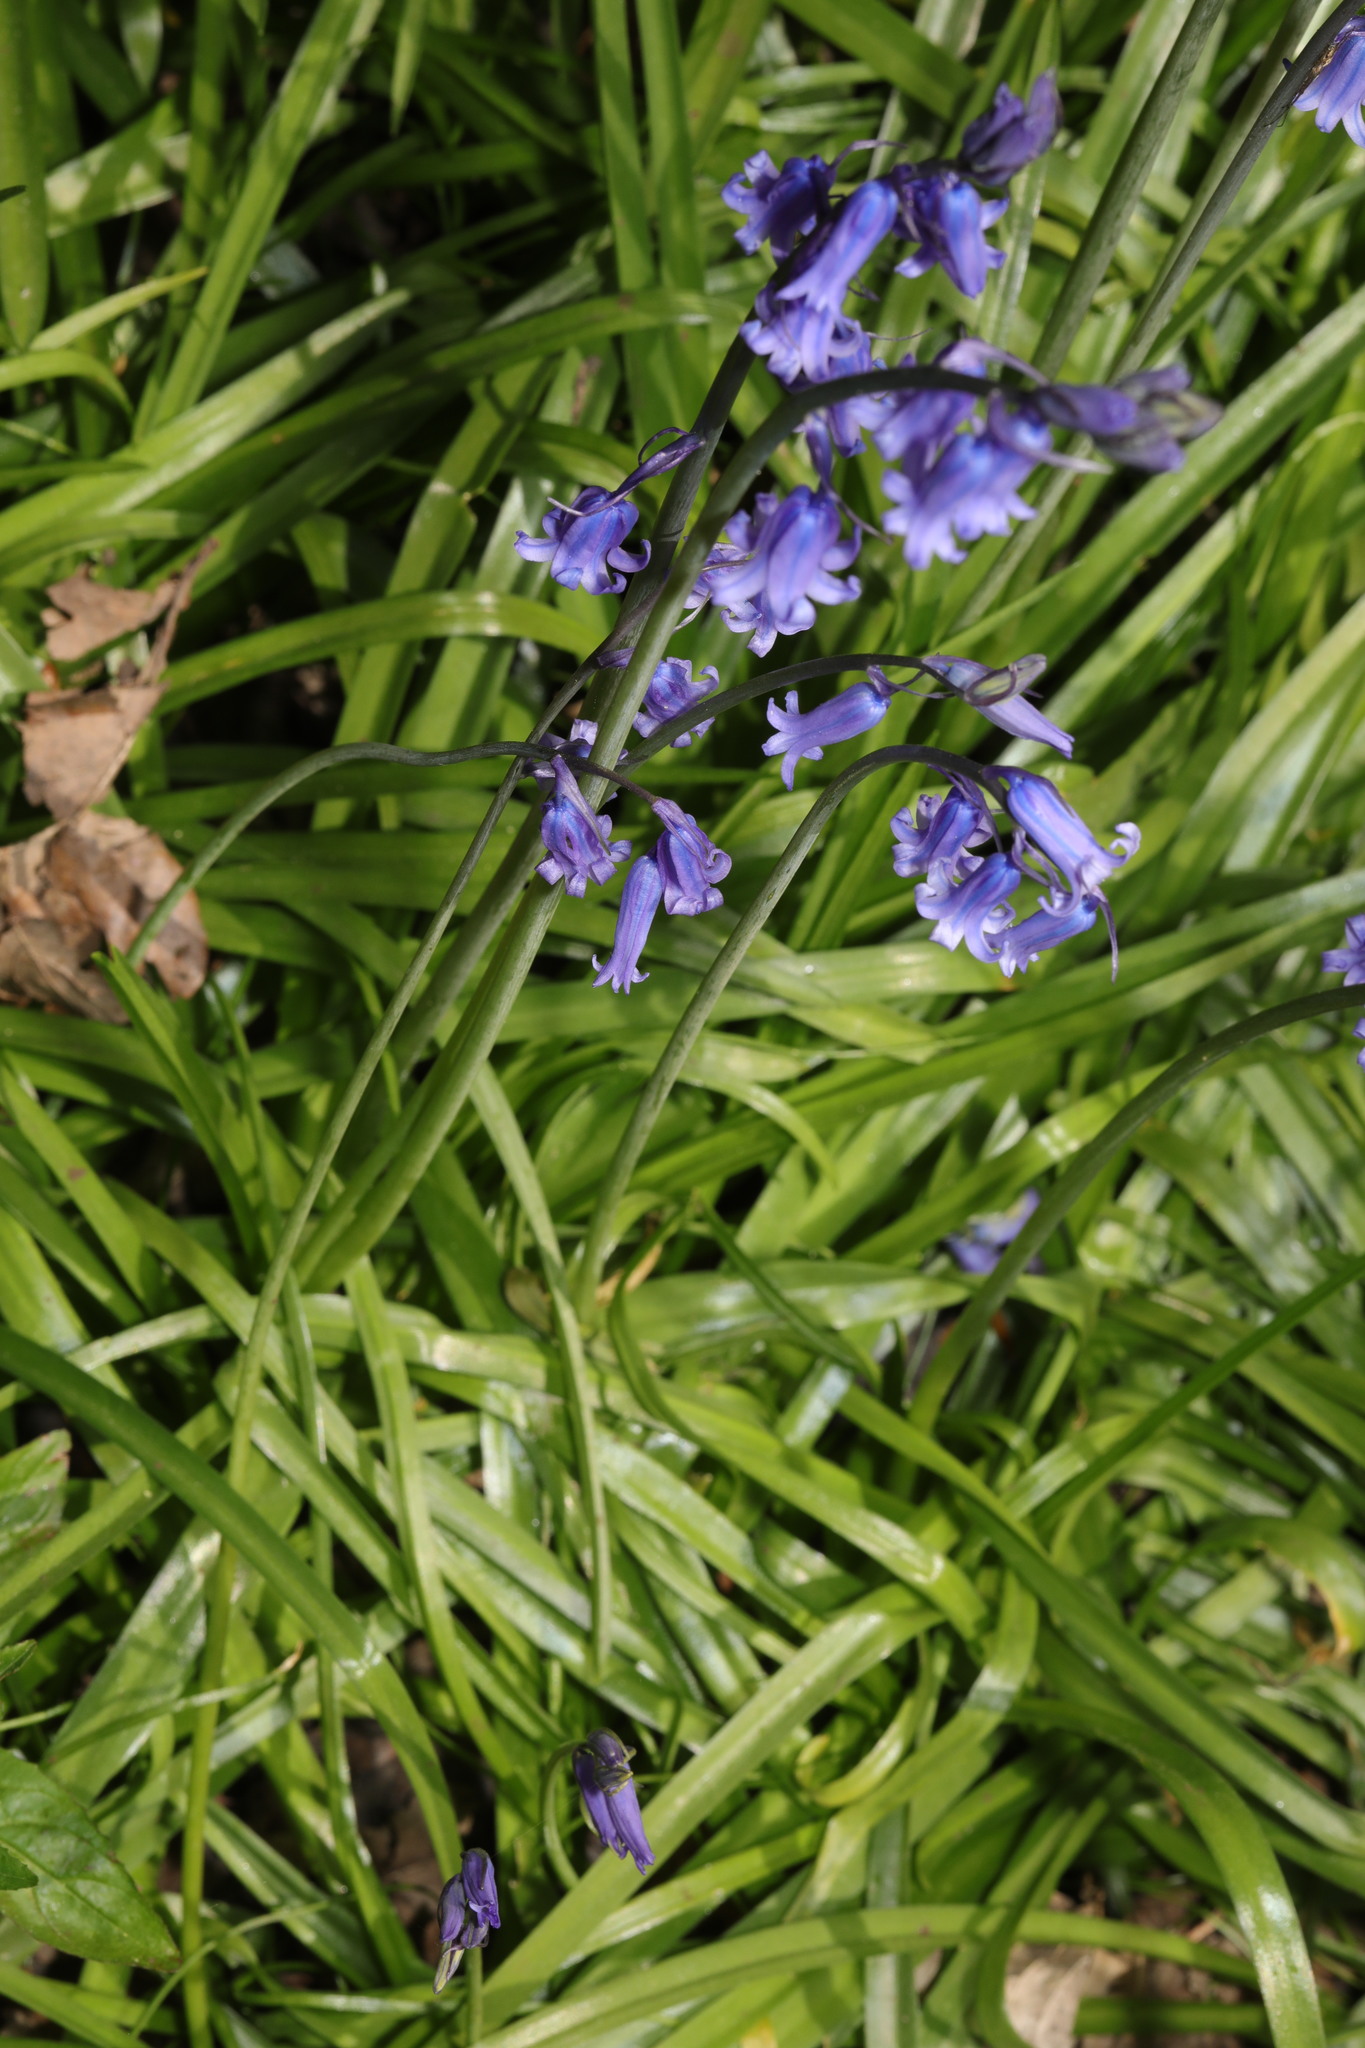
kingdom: Plantae
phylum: Tracheophyta
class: Liliopsida
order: Asparagales
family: Asparagaceae
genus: Hyacinthoides
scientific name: Hyacinthoides non-scripta
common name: Bluebell
